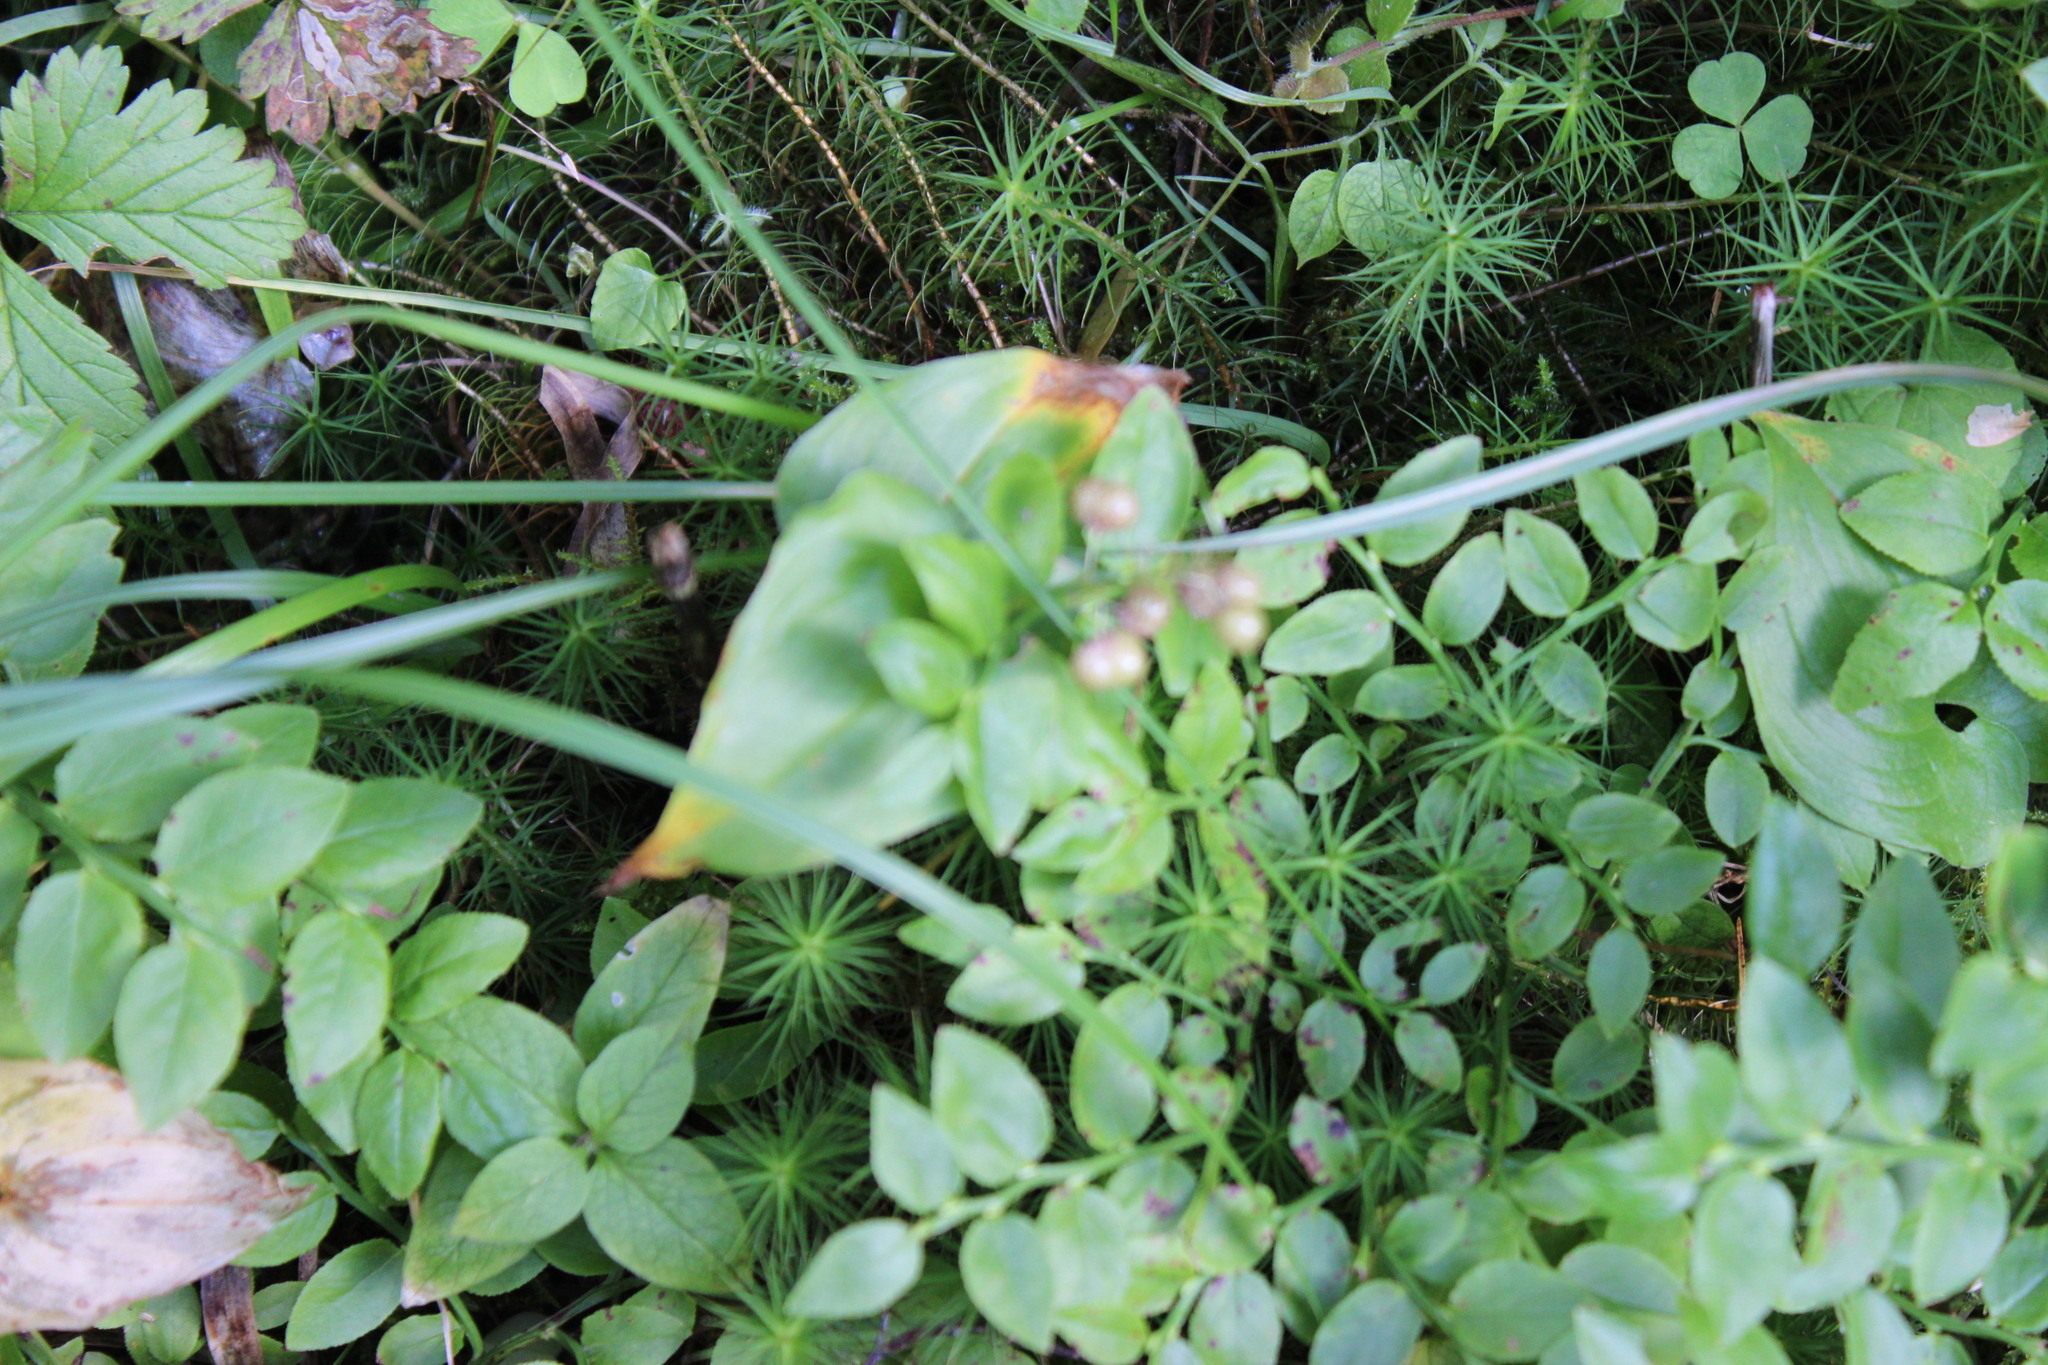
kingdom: Plantae
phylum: Tracheophyta
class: Magnoliopsida
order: Ericales
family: Ericaceae
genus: Vaccinium
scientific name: Vaccinium myrtillus
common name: Bilberry
